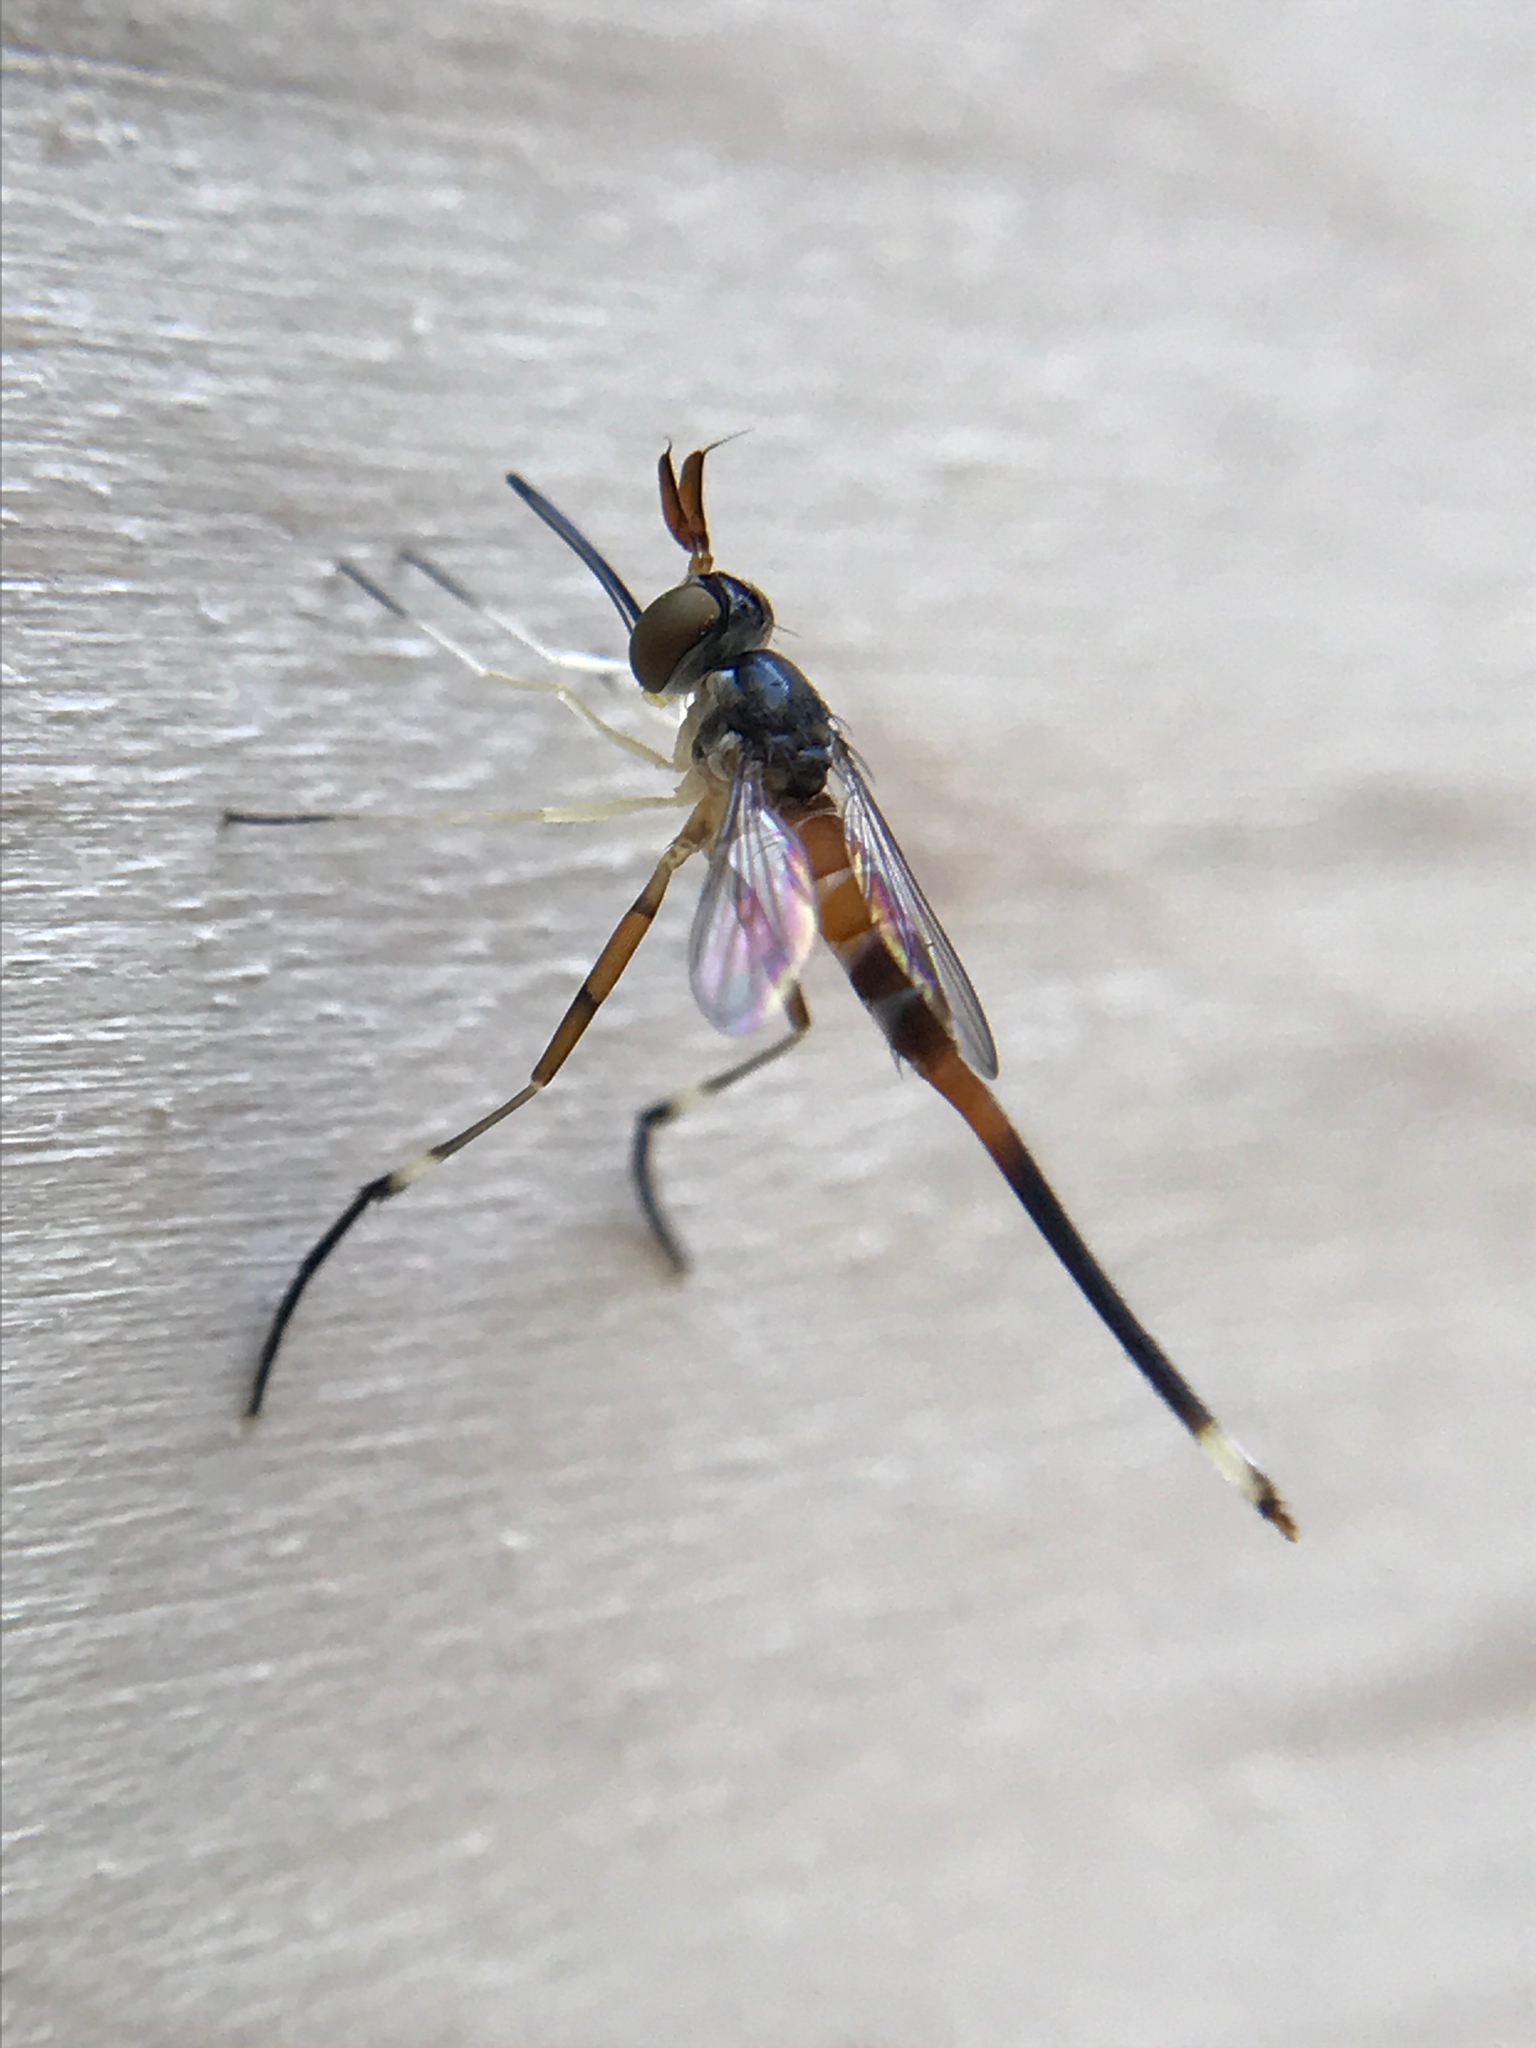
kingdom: Animalia
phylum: Arthropoda
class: Insecta
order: Diptera
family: Conopidae
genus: Stylogaster
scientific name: Stylogaster neglecta
